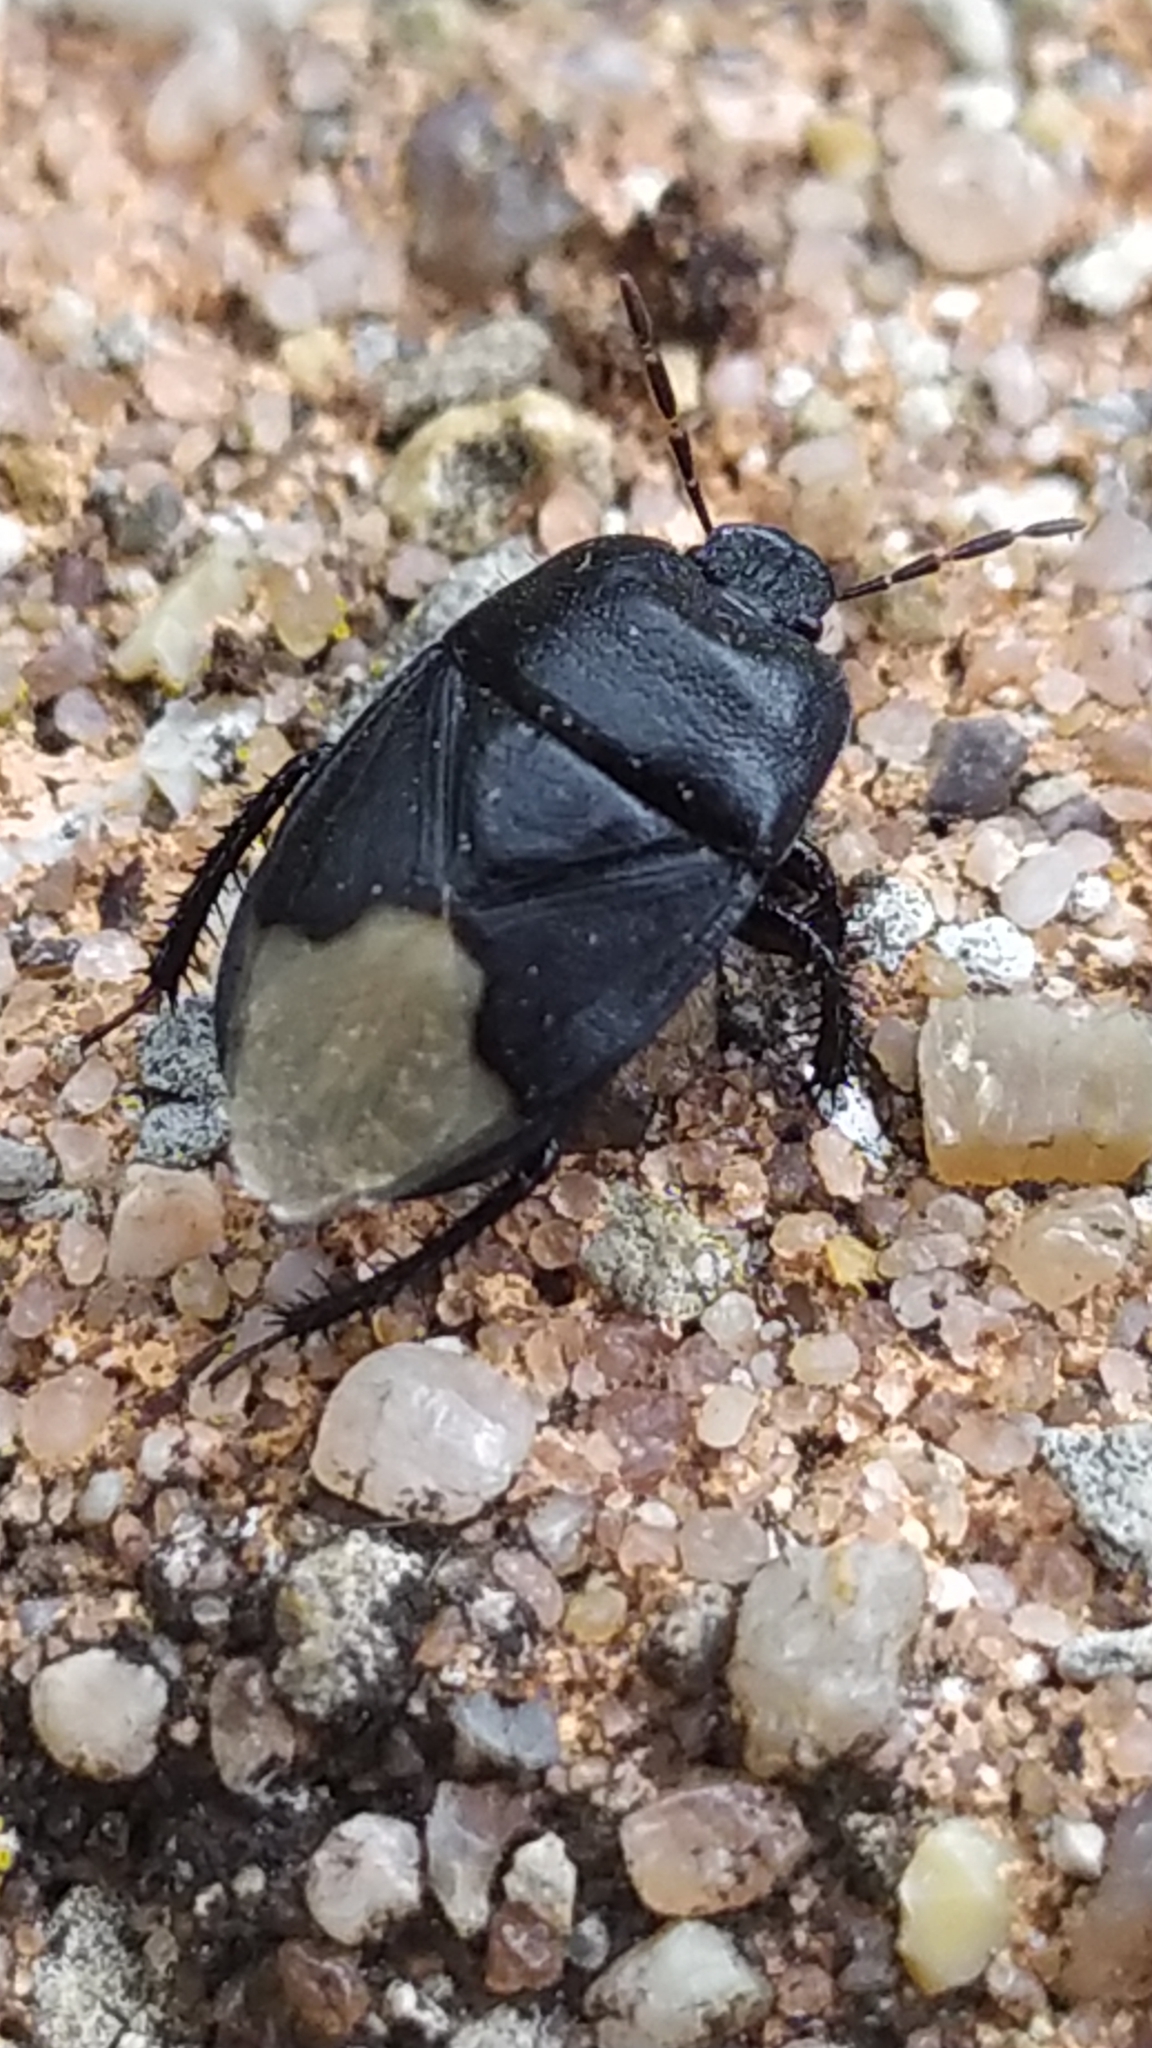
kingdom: Animalia
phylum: Arthropoda
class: Insecta
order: Hemiptera
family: Cydnidae
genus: Cydnus
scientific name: Cydnus aterrimus
